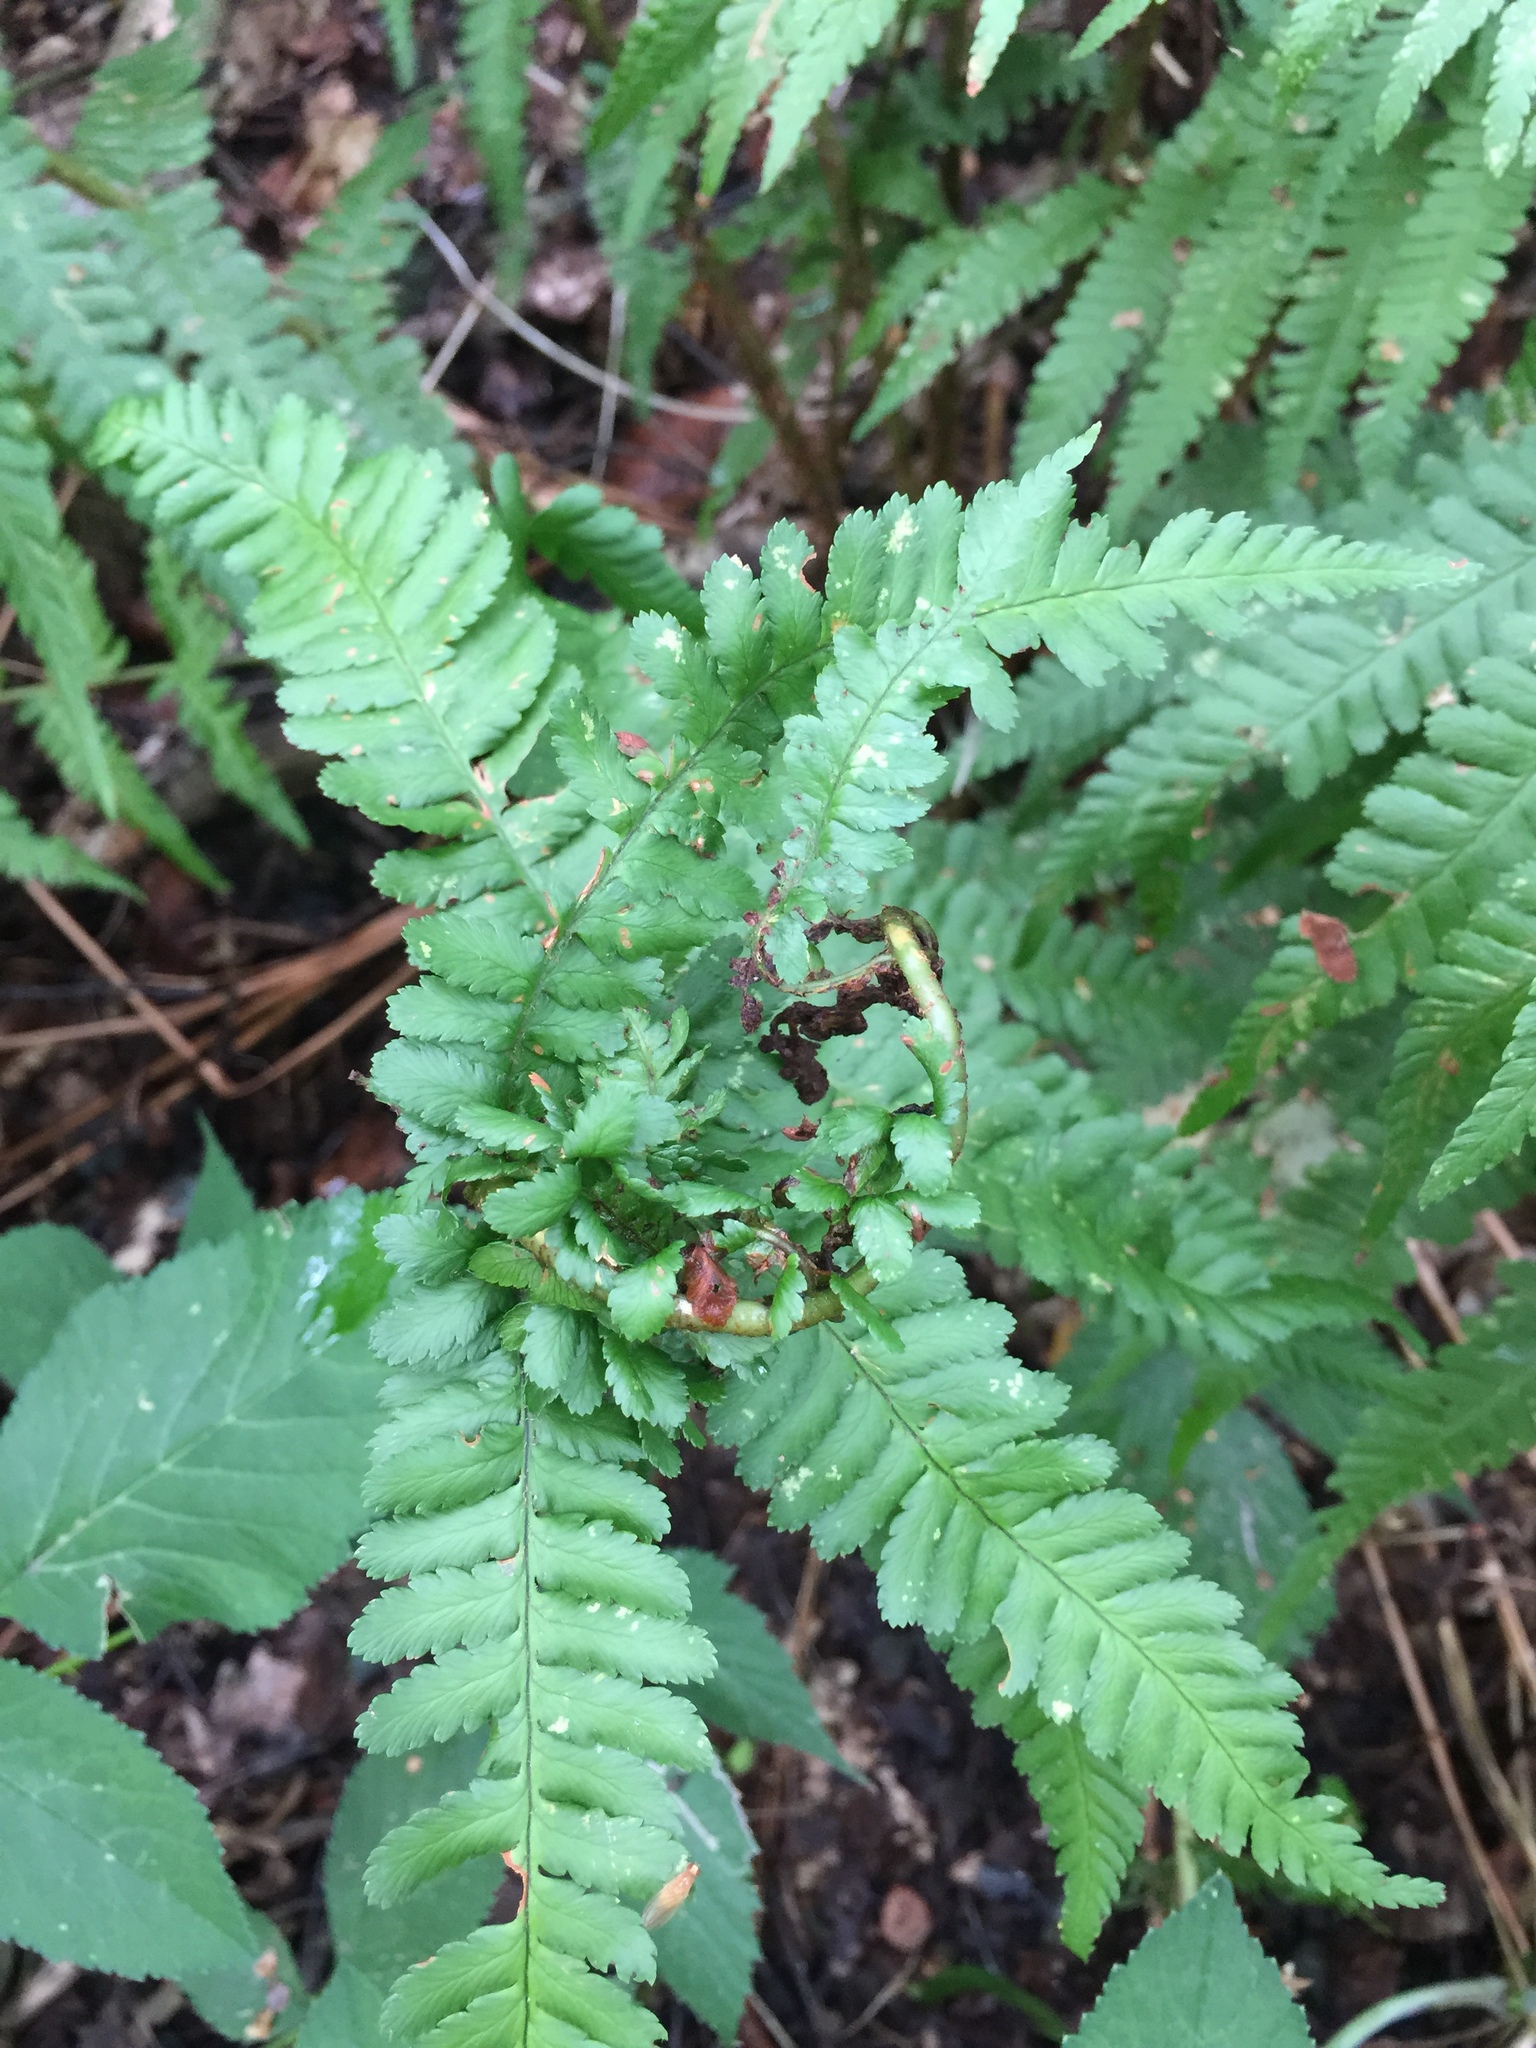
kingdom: Animalia
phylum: Arthropoda
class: Insecta
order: Diptera
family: Anthomyiidae
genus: Chirosia
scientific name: Chirosia betuleti
